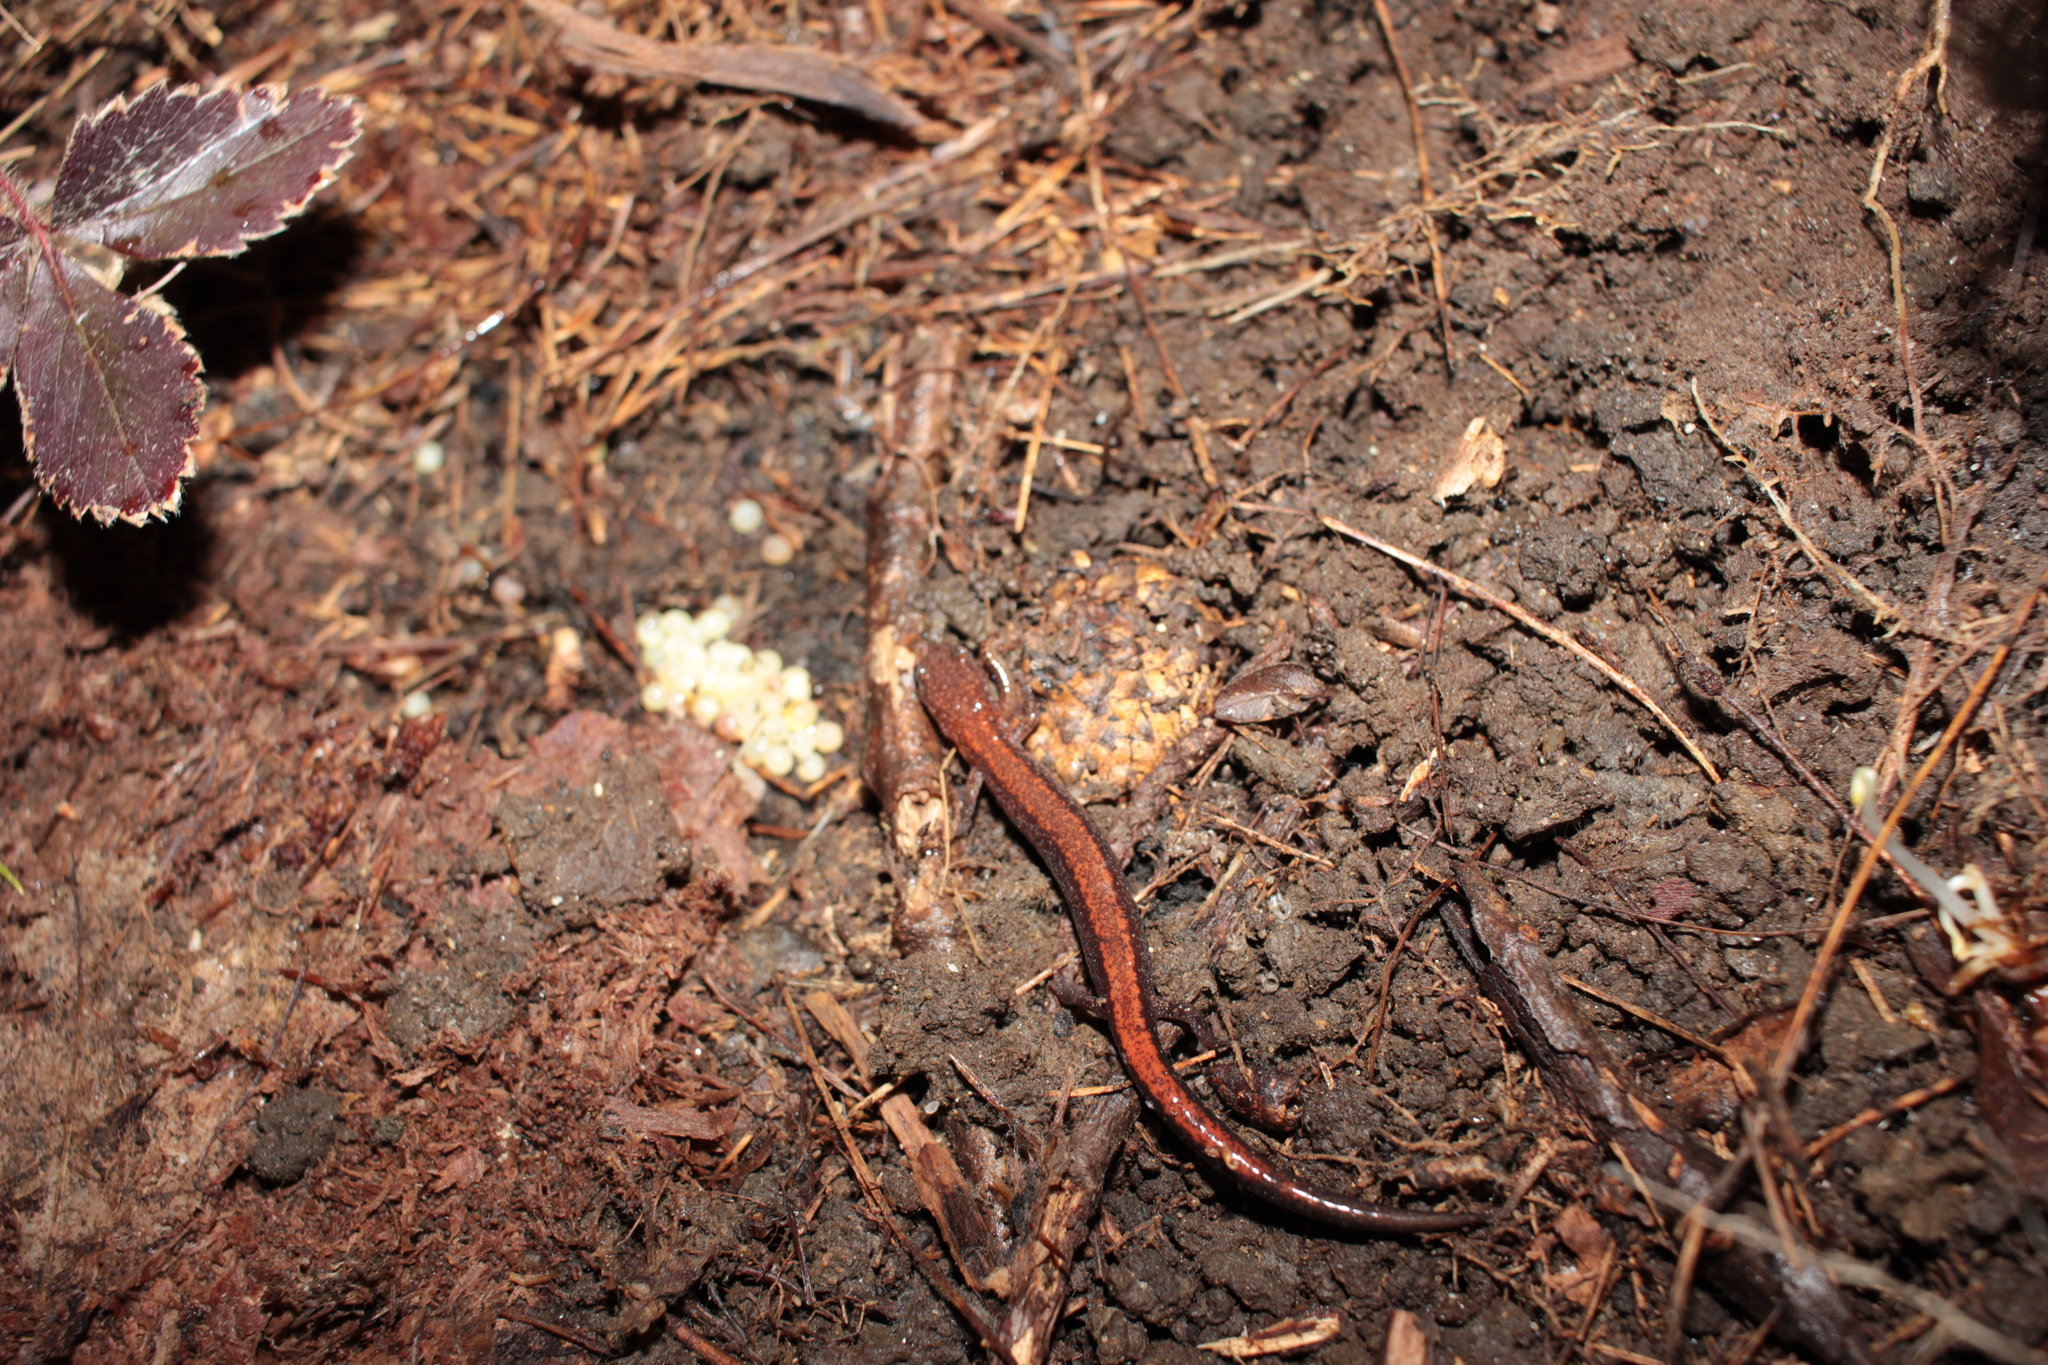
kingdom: Animalia
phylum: Chordata
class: Amphibia
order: Caudata
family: Plethodontidae
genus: Plethodon
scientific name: Plethodon cinereus
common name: Redback salamander
